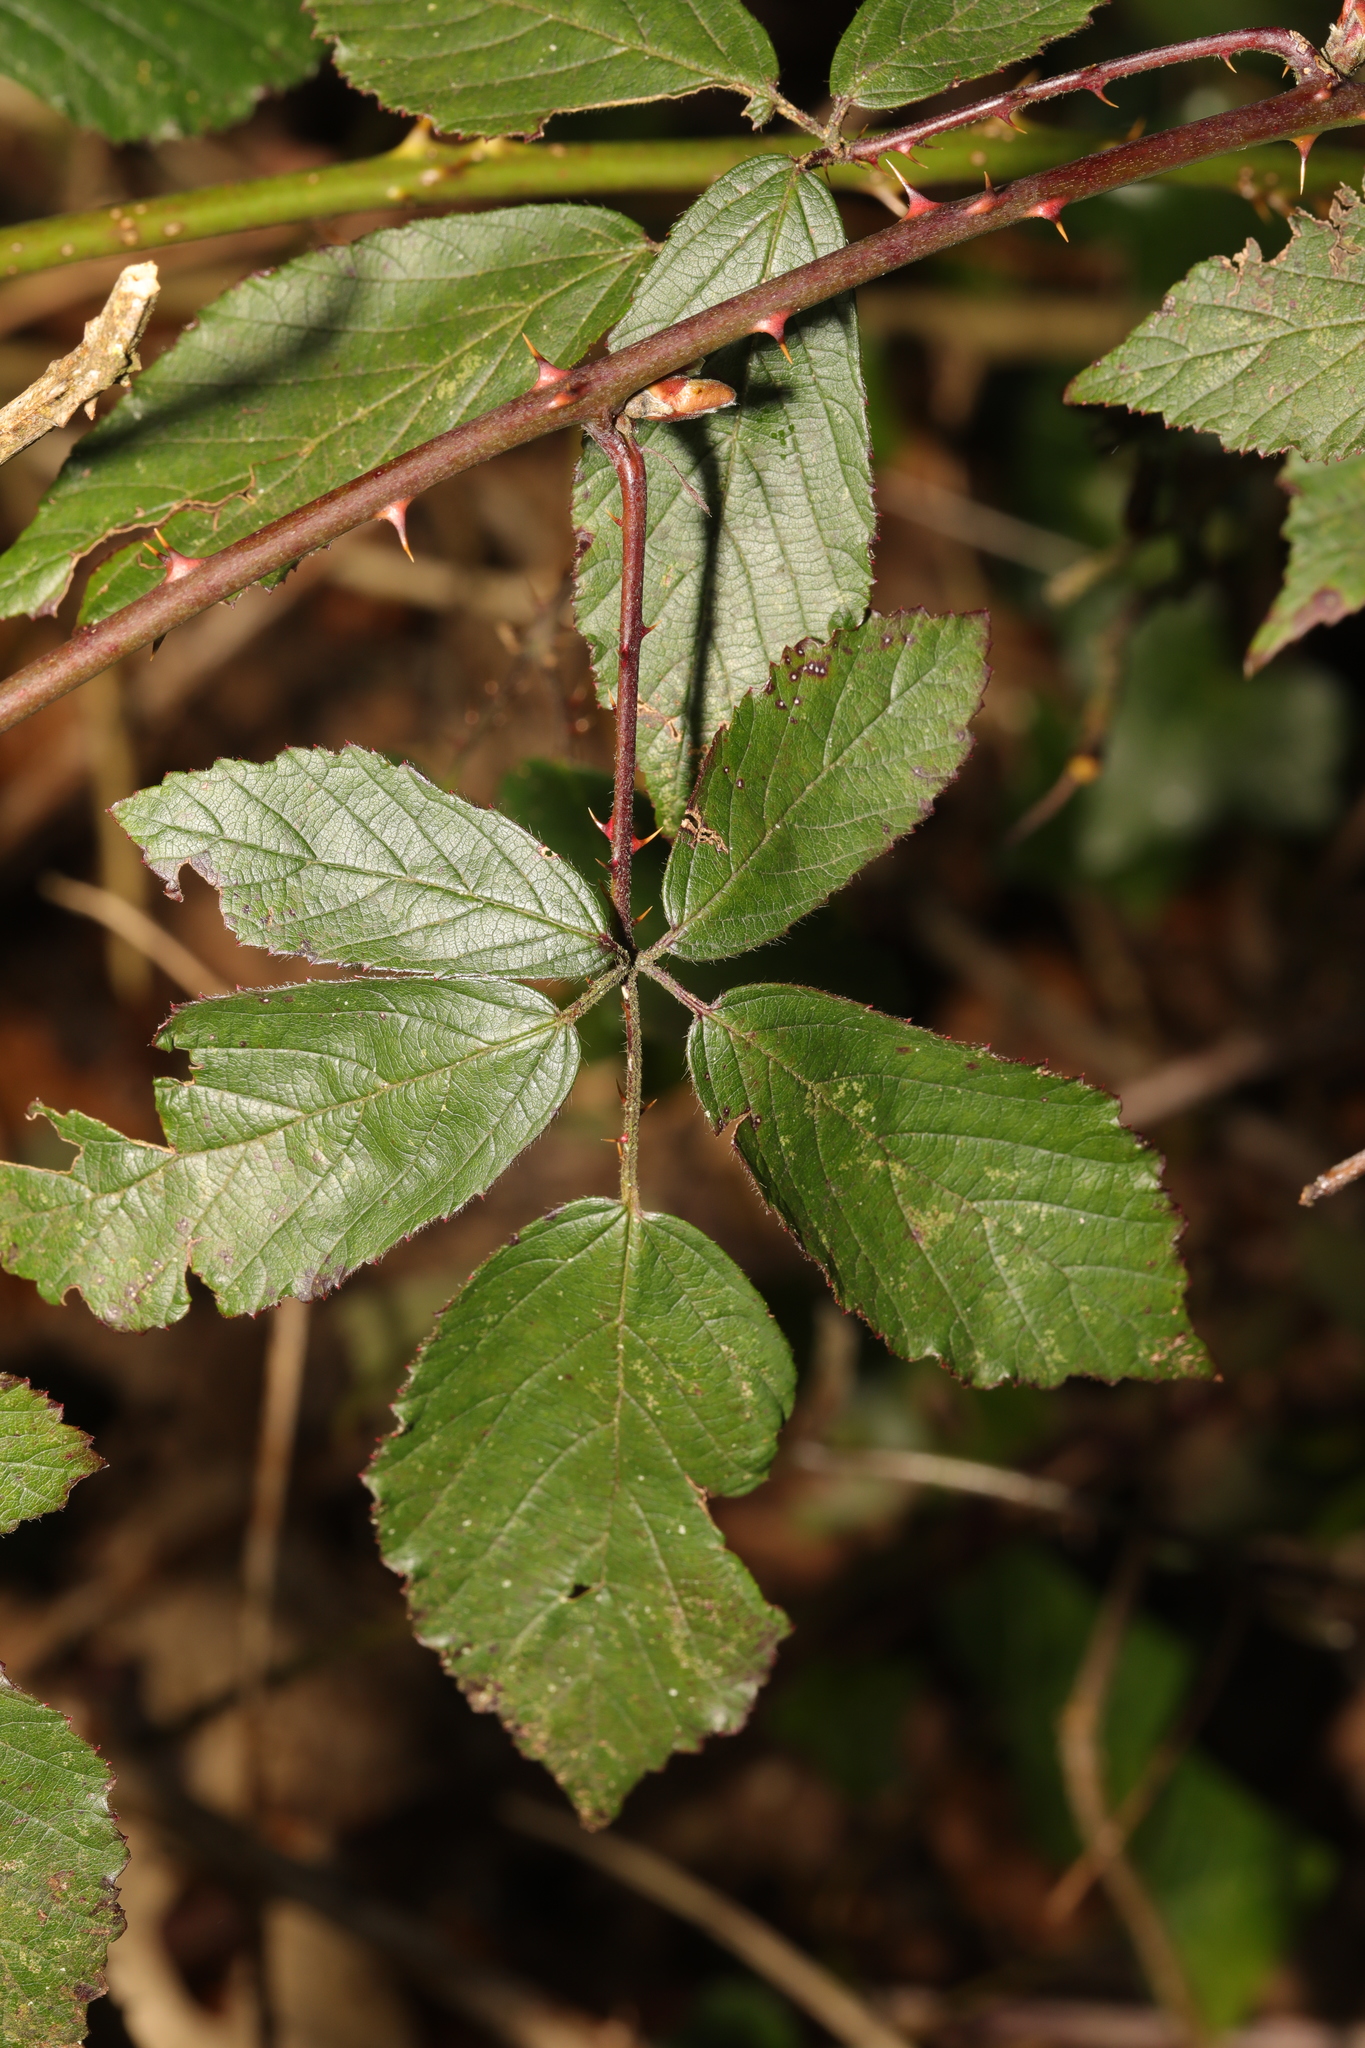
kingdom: Plantae
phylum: Tracheophyta
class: Magnoliopsida
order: Rosales
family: Rosaceae
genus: Rubus
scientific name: Rubus lindleyanus
